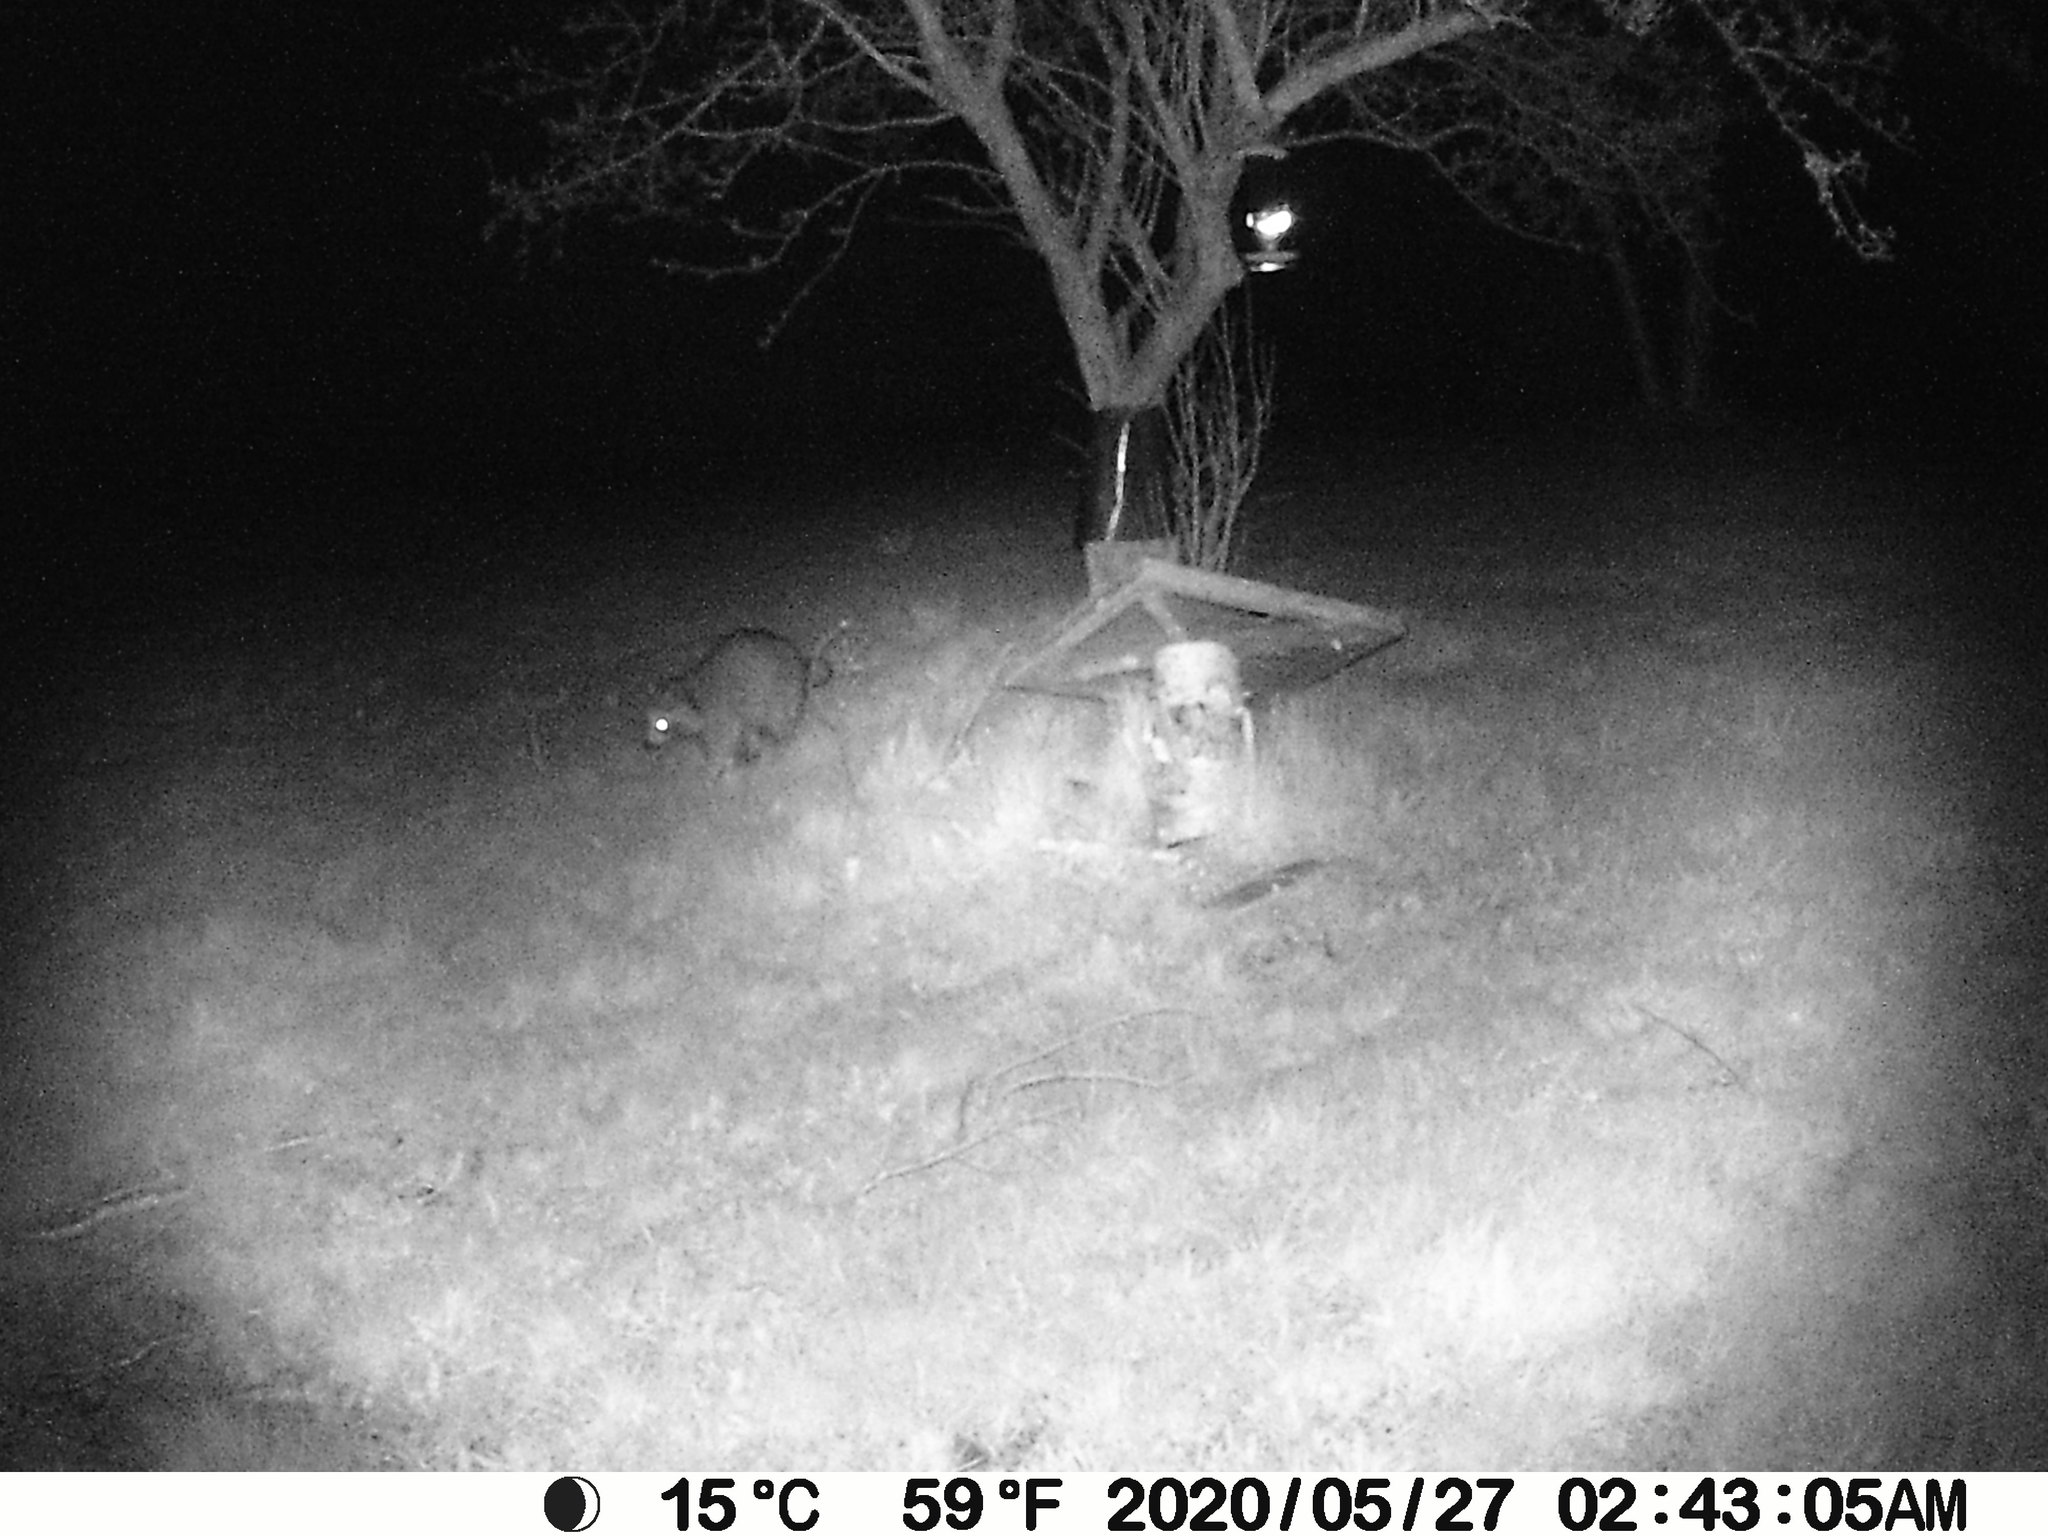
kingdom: Animalia
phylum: Chordata
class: Mammalia
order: Carnivora
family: Procyonidae
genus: Procyon
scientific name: Procyon lotor
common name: Raccoon
